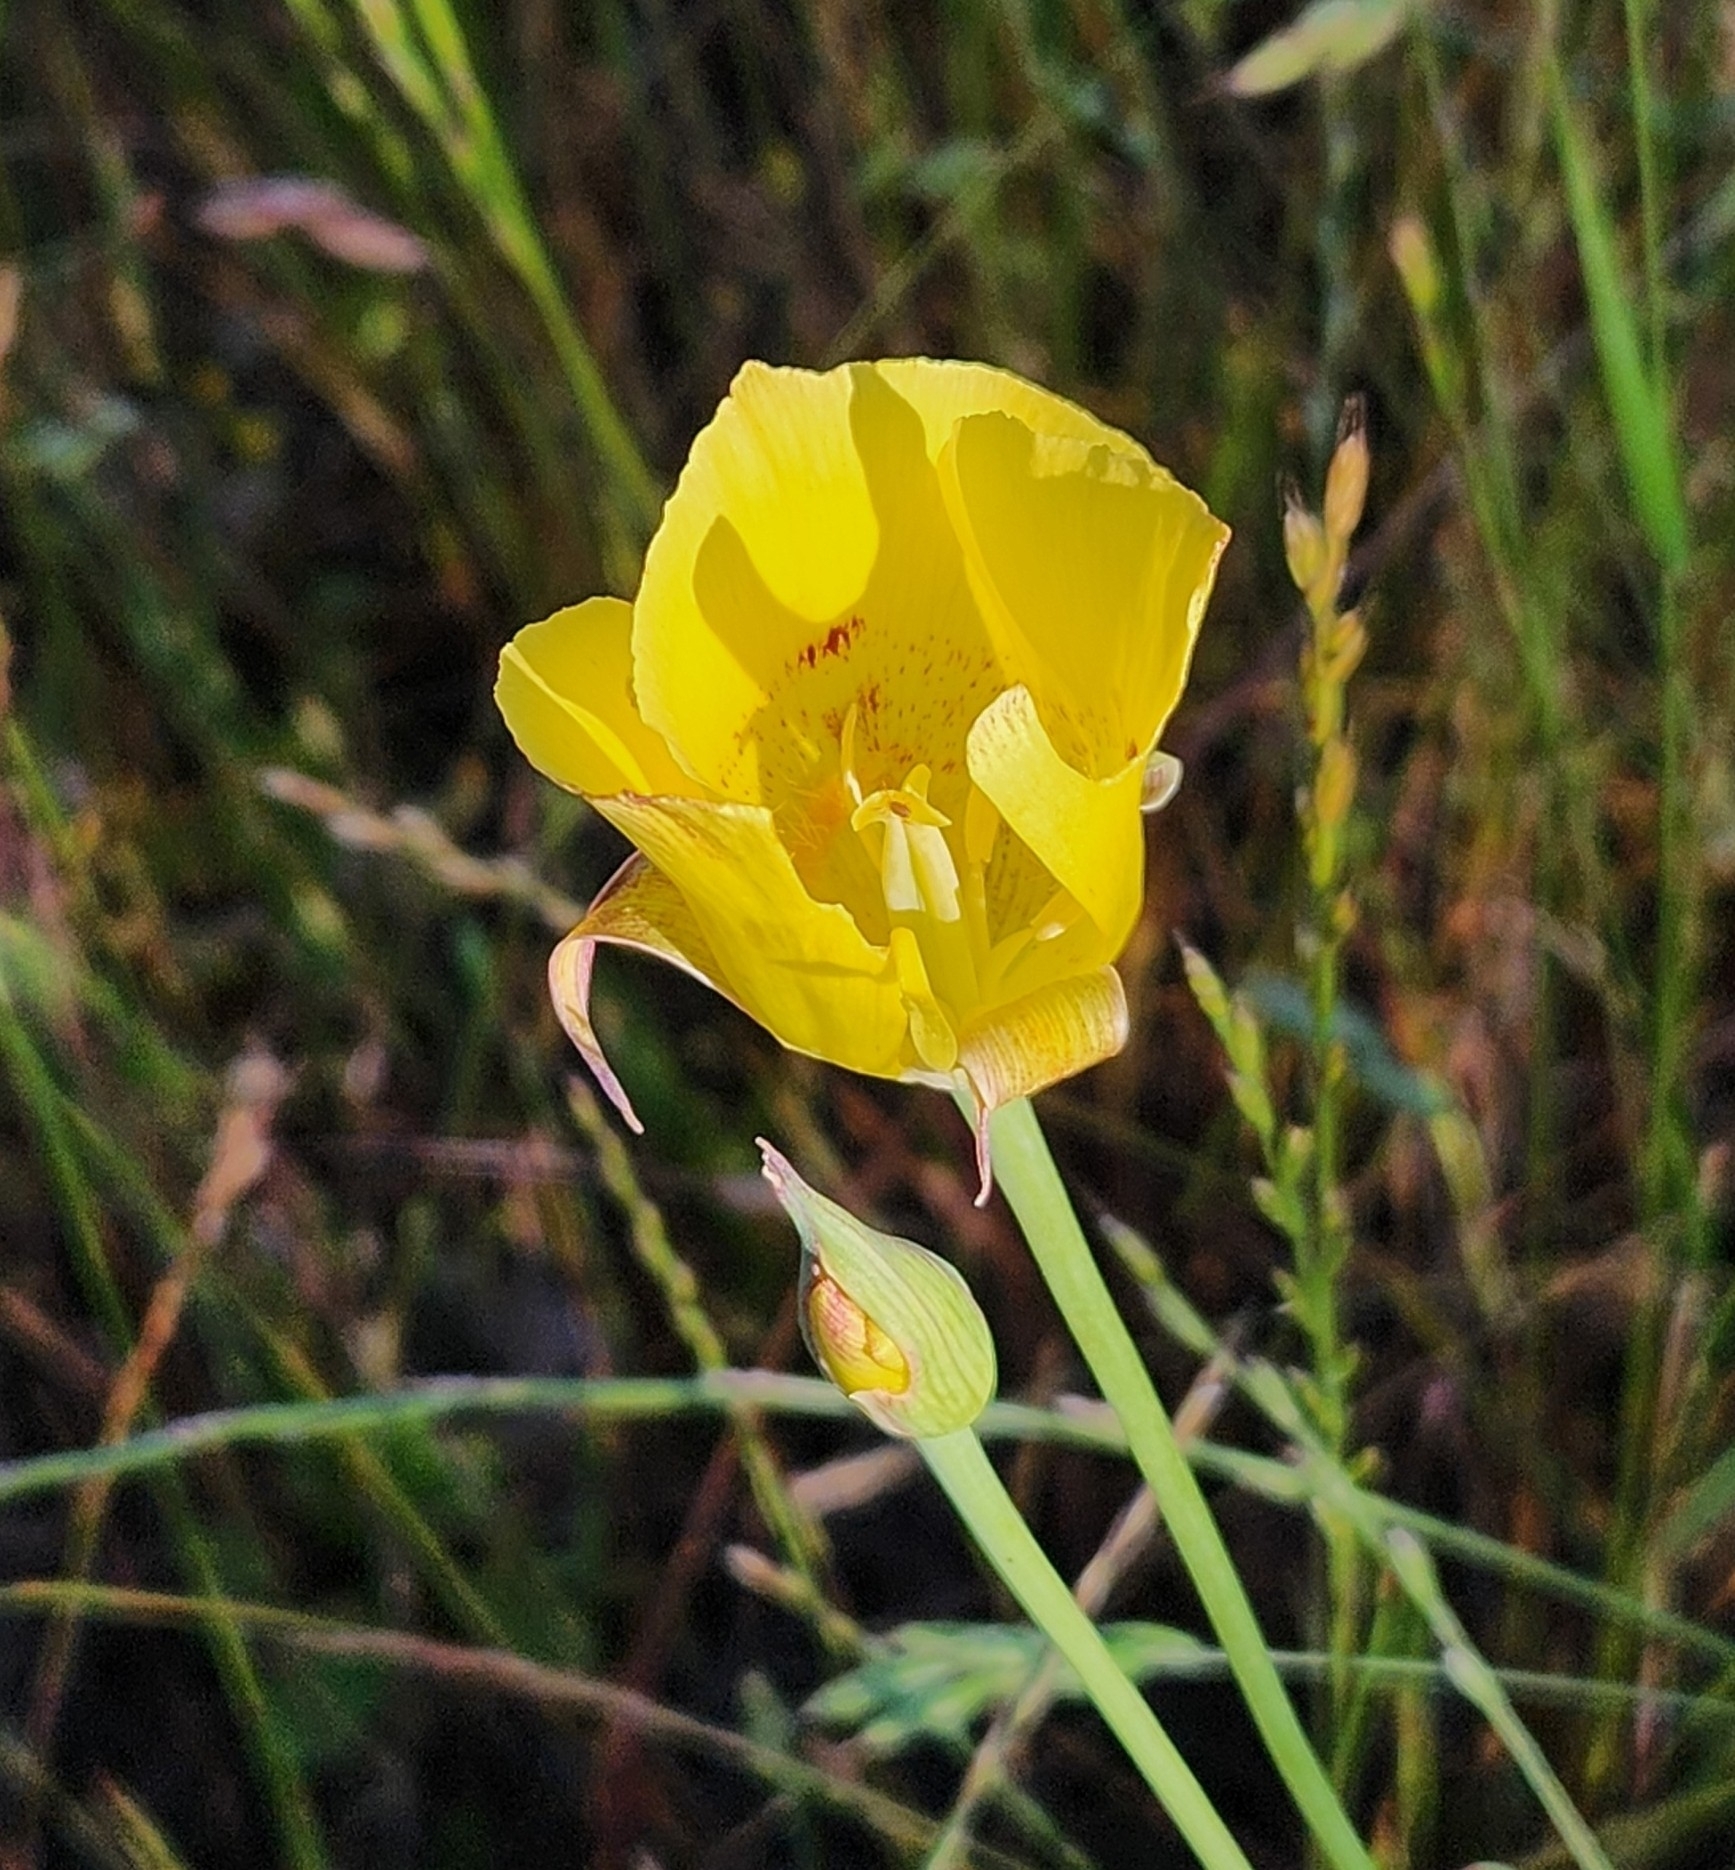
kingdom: Plantae
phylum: Tracheophyta
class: Liliopsida
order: Liliales
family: Liliaceae
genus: Calochortus
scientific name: Calochortus luteus
